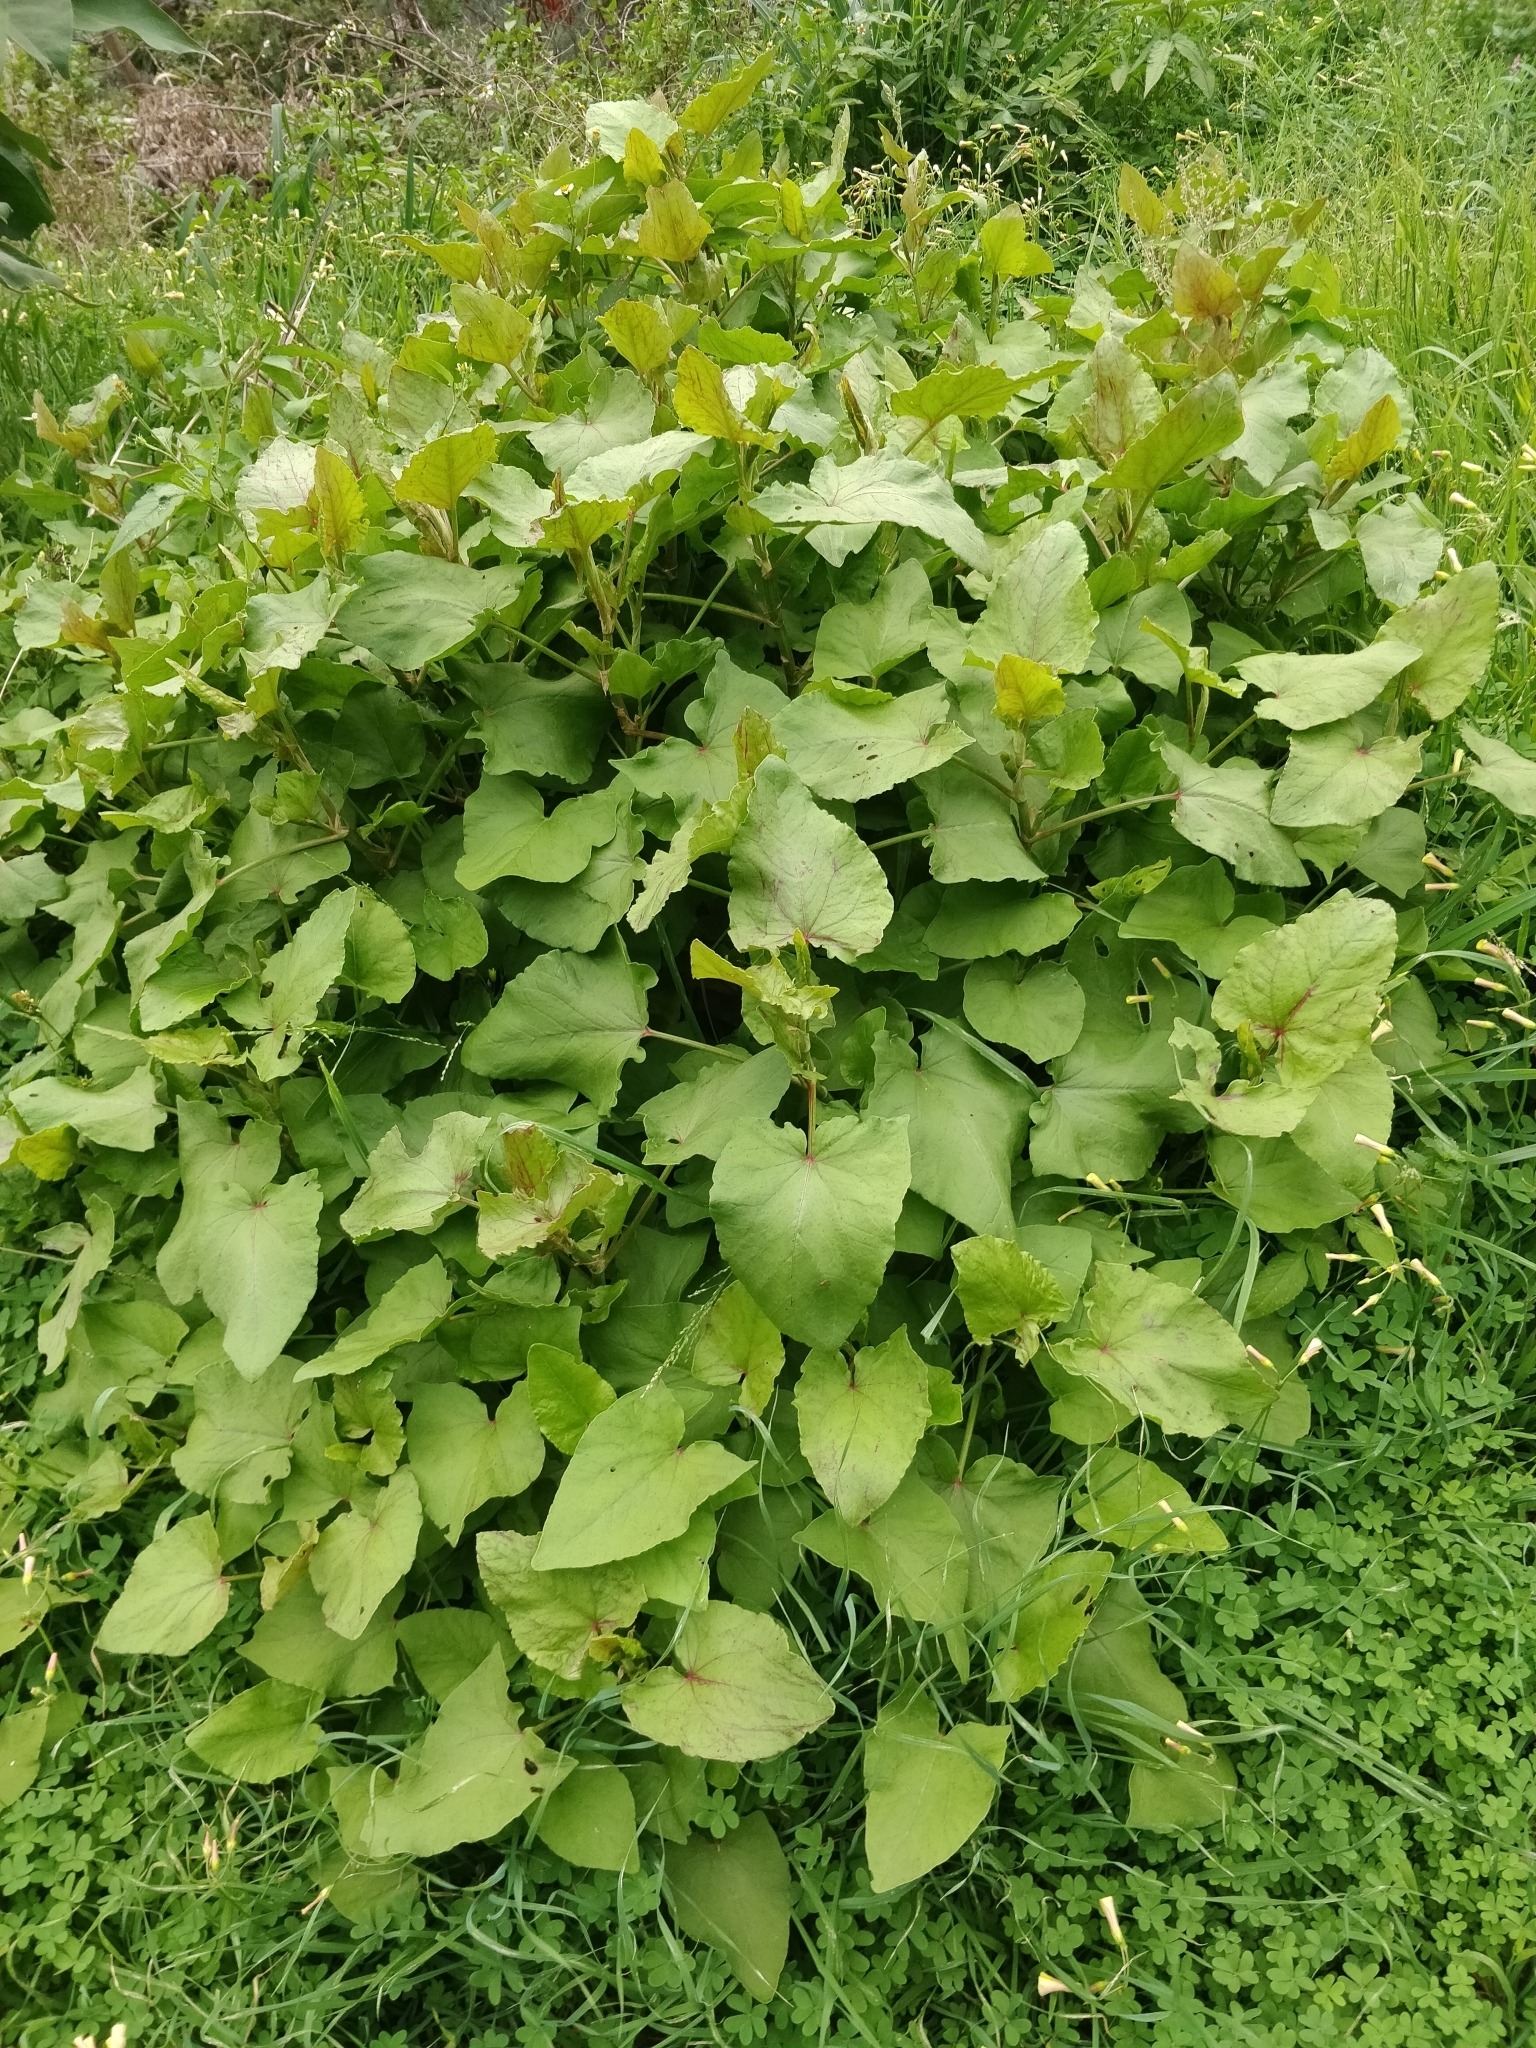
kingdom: Plantae
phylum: Tracheophyta
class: Magnoliopsida
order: Caryophyllales
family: Polygonaceae
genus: Rumex
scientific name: Rumex maderensis
